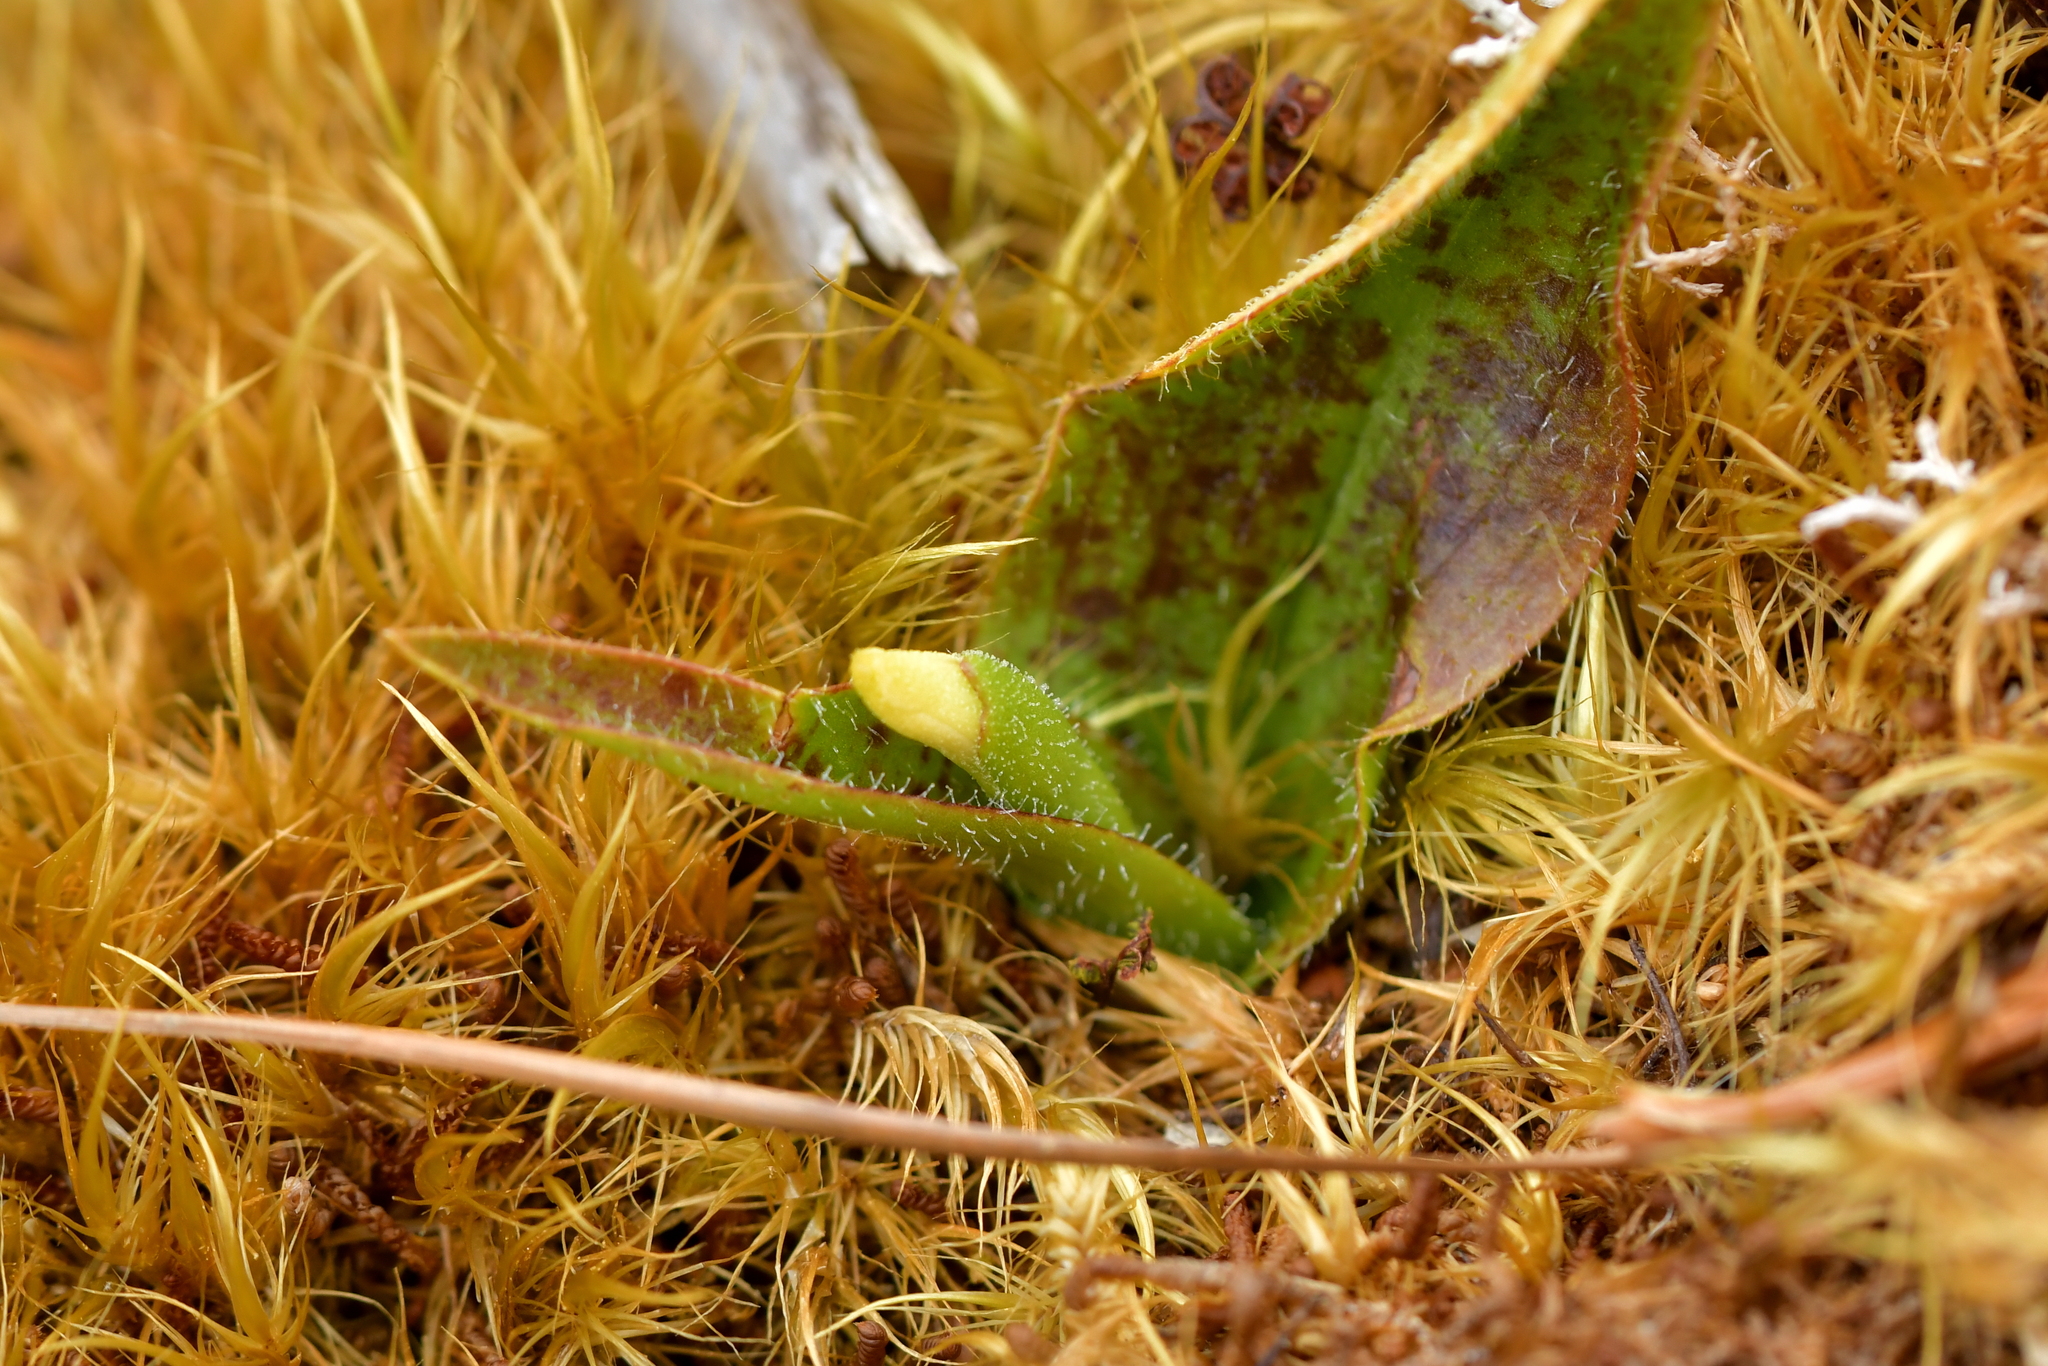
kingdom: Plantae
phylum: Tracheophyta
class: Liliopsida
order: Asparagales
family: Orchidaceae
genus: Aporostylis
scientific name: Aporostylis bifolia
